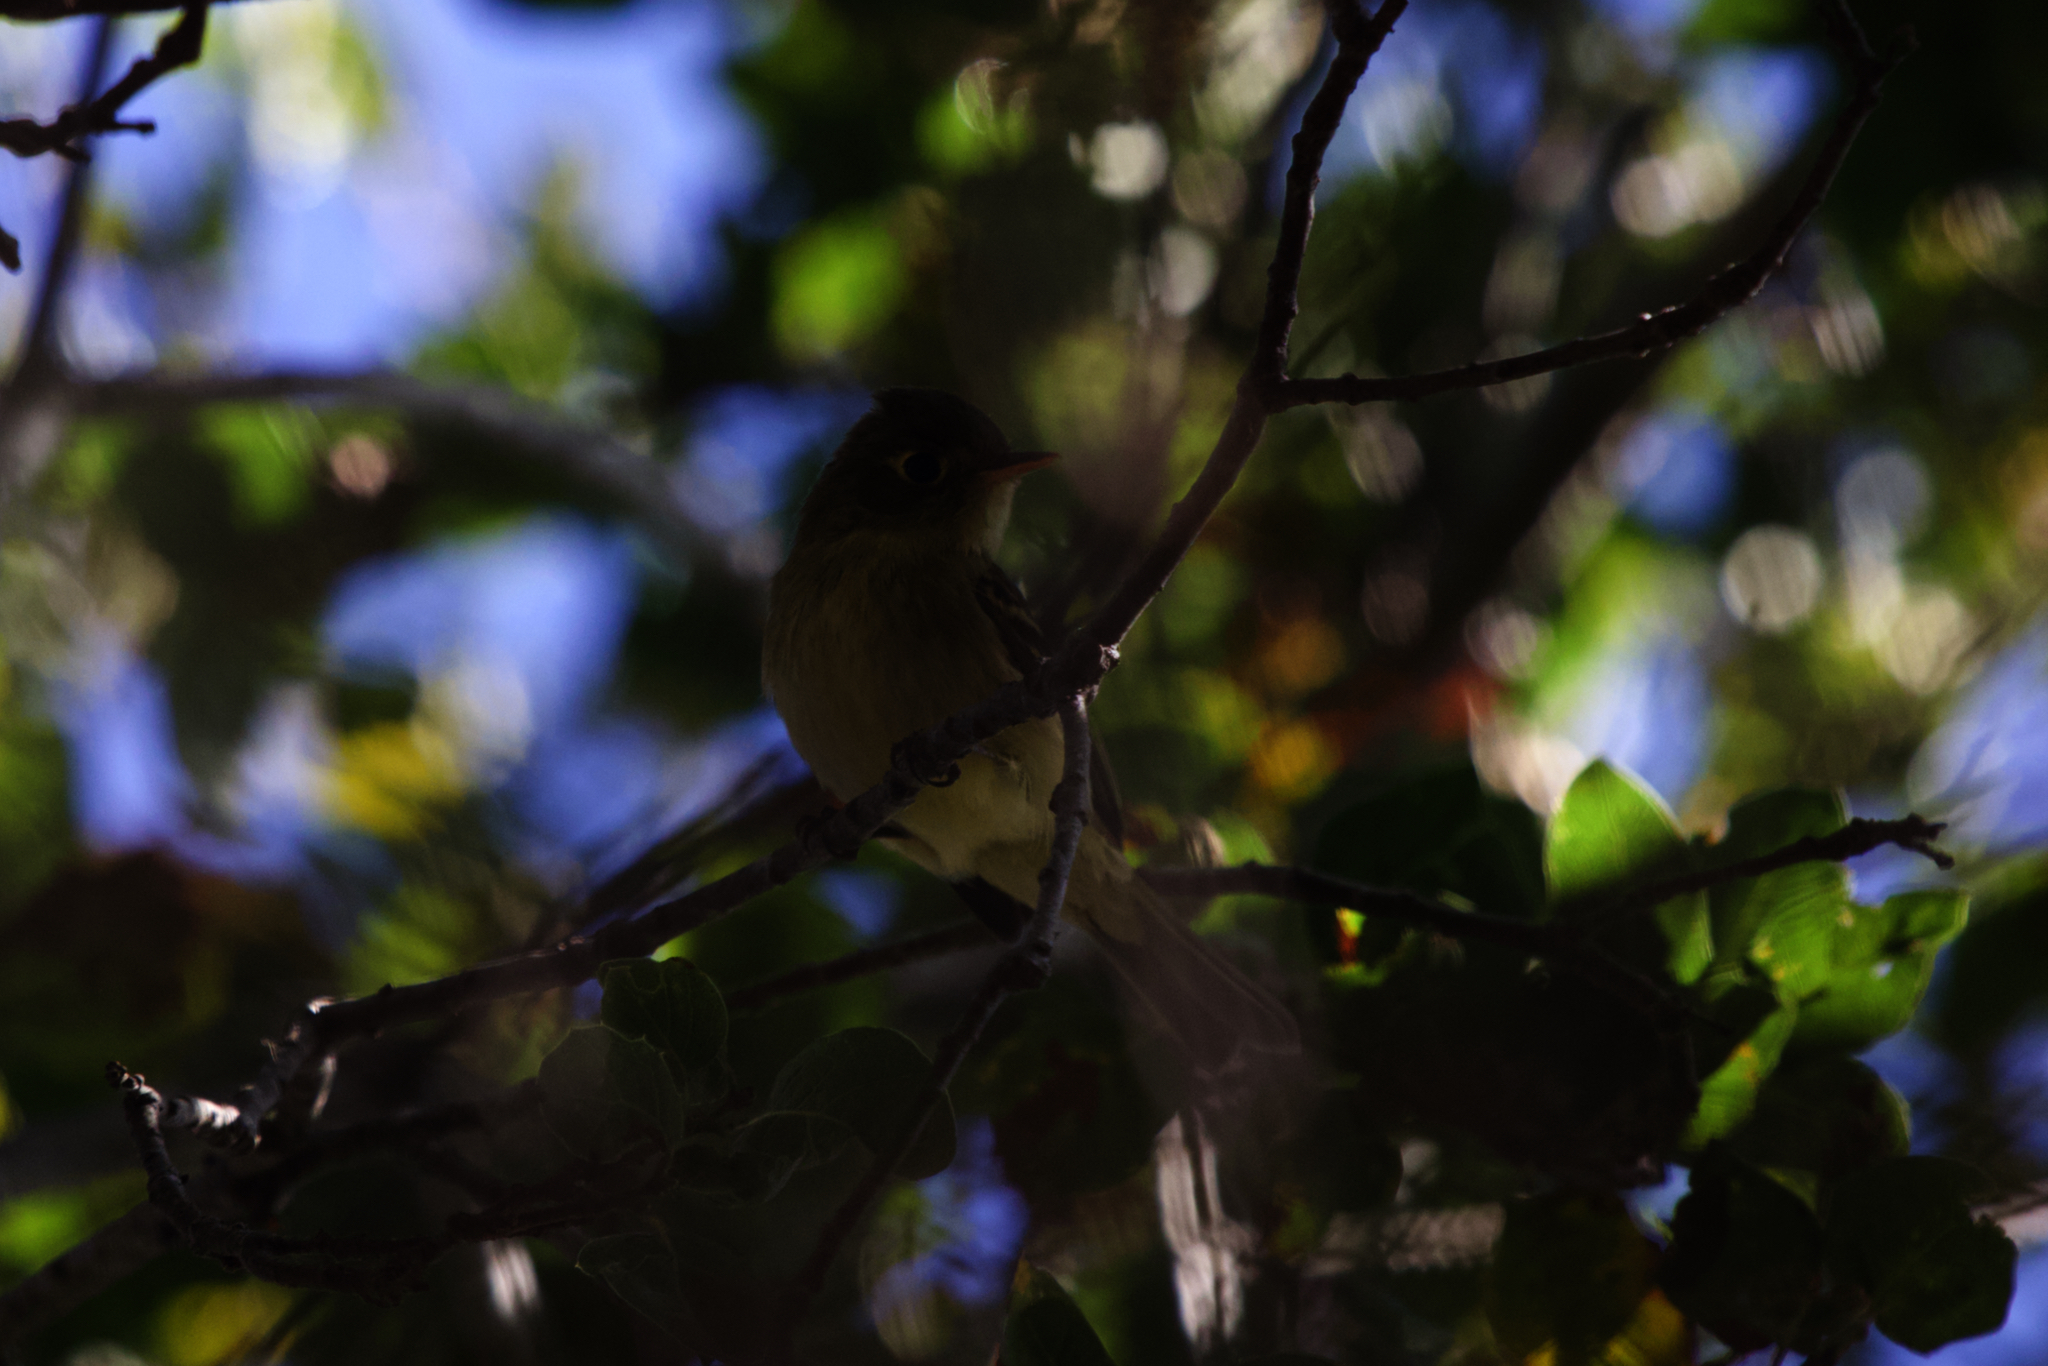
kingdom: Animalia
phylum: Chordata
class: Aves
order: Passeriformes
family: Tyrannidae
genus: Empidonax
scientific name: Empidonax difficilis
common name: Pacific-slope flycatcher
